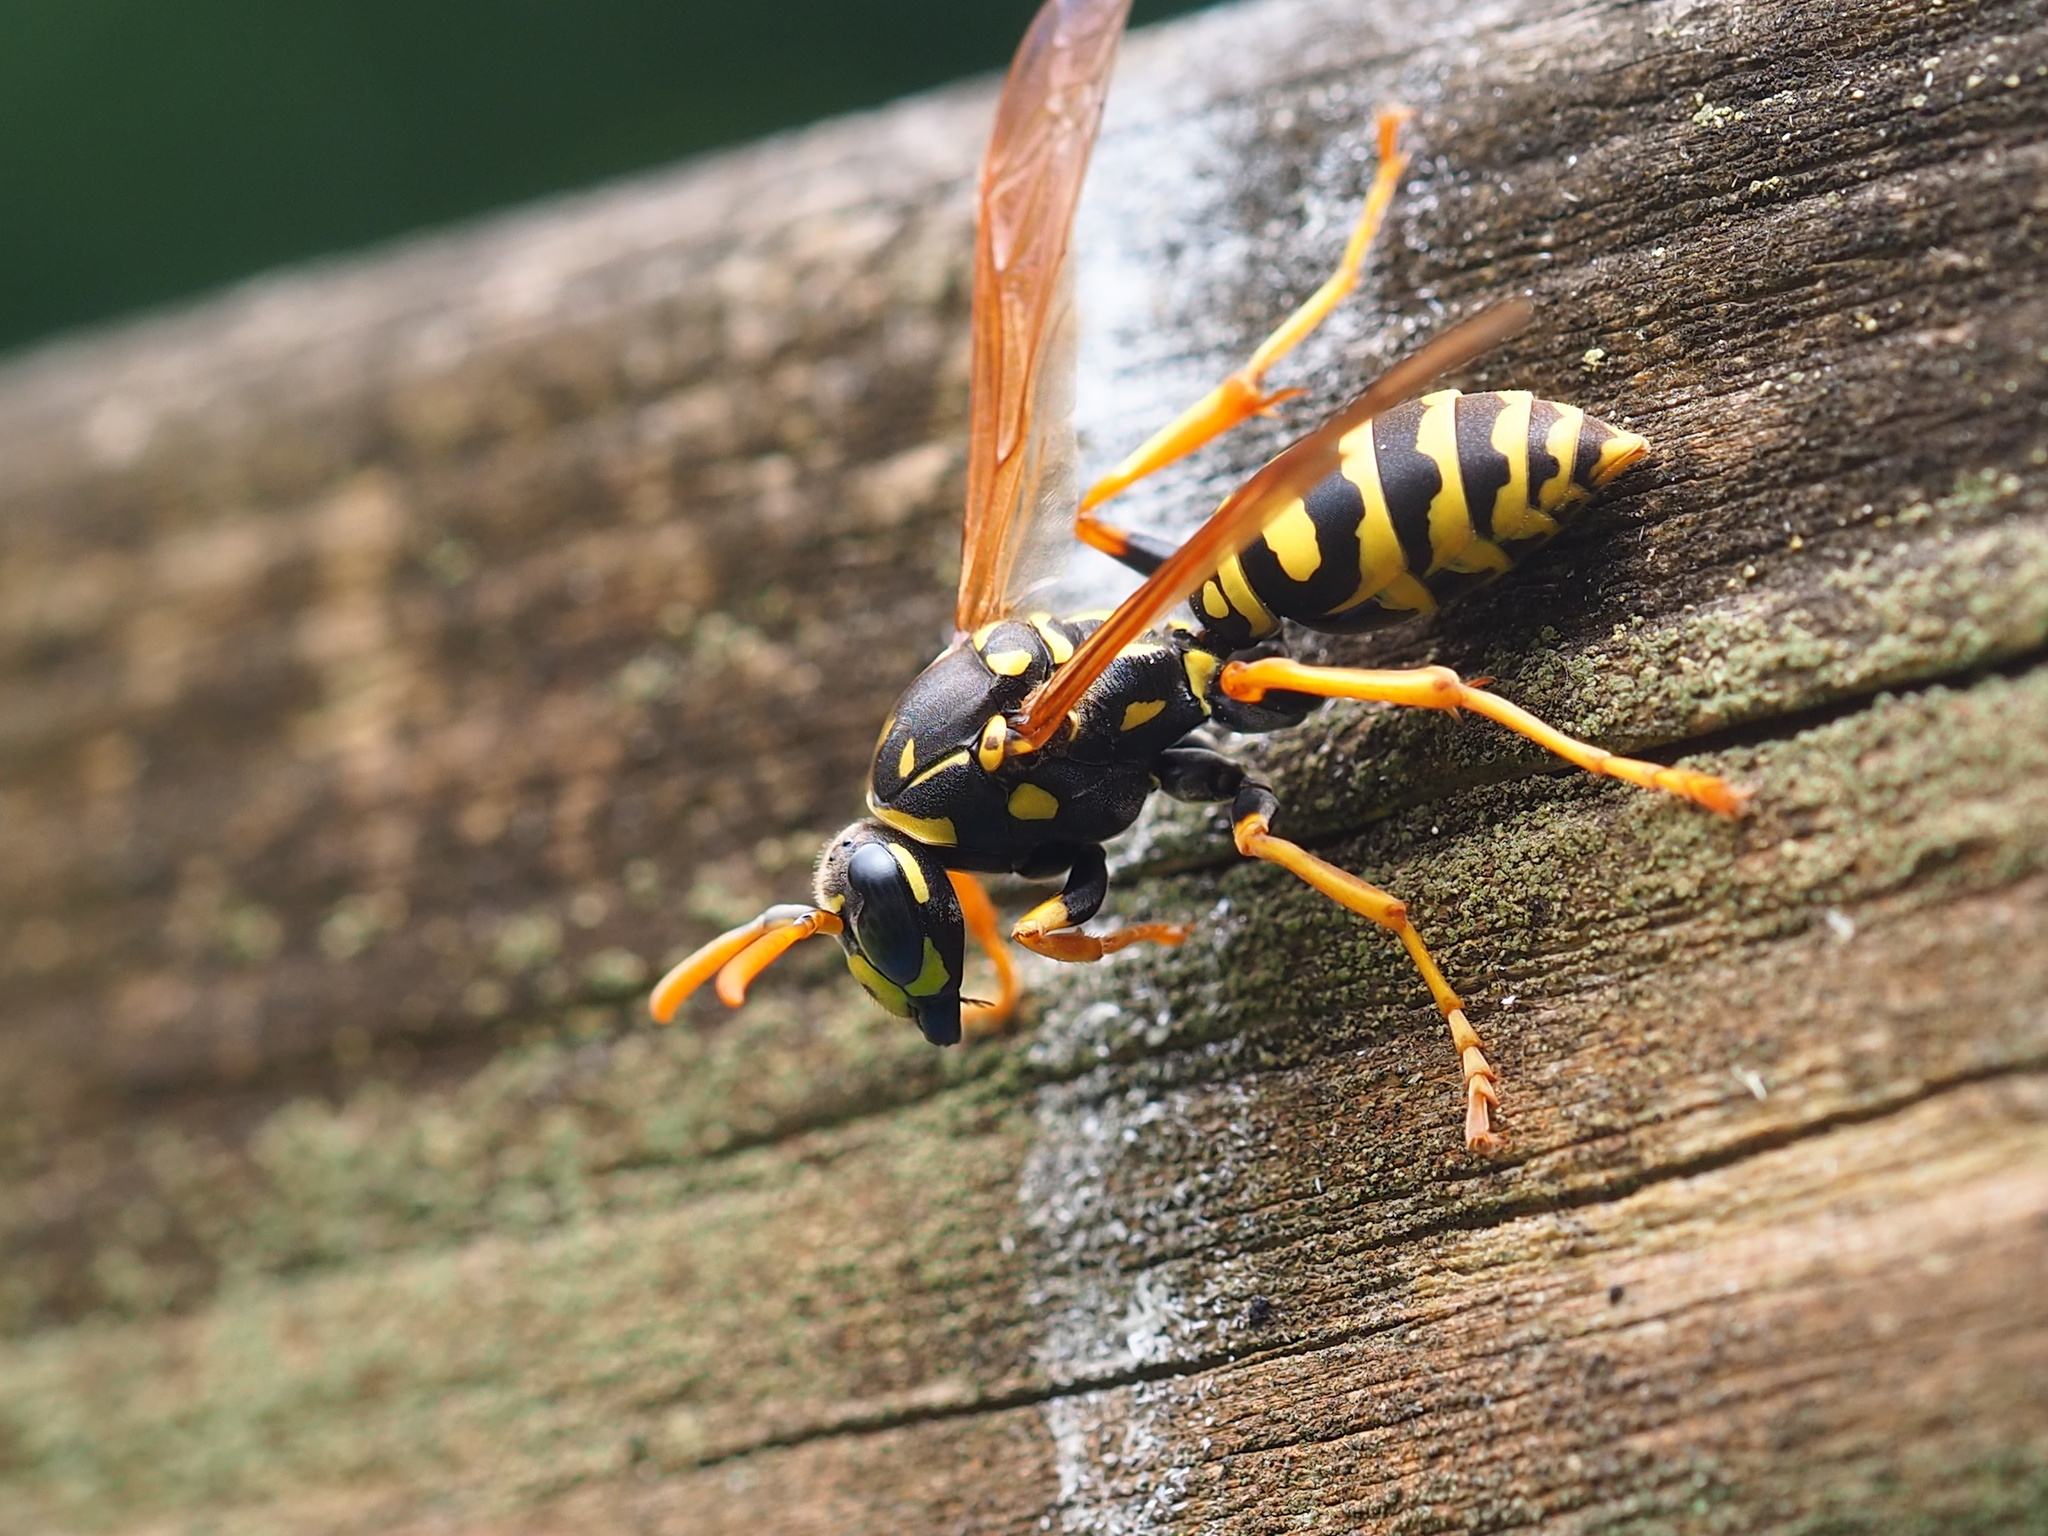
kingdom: Animalia
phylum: Arthropoda
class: Insecta
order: Hymenoptera
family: Eumenidae
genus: Polistes
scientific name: Polistes dominula
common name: Paper wasp
